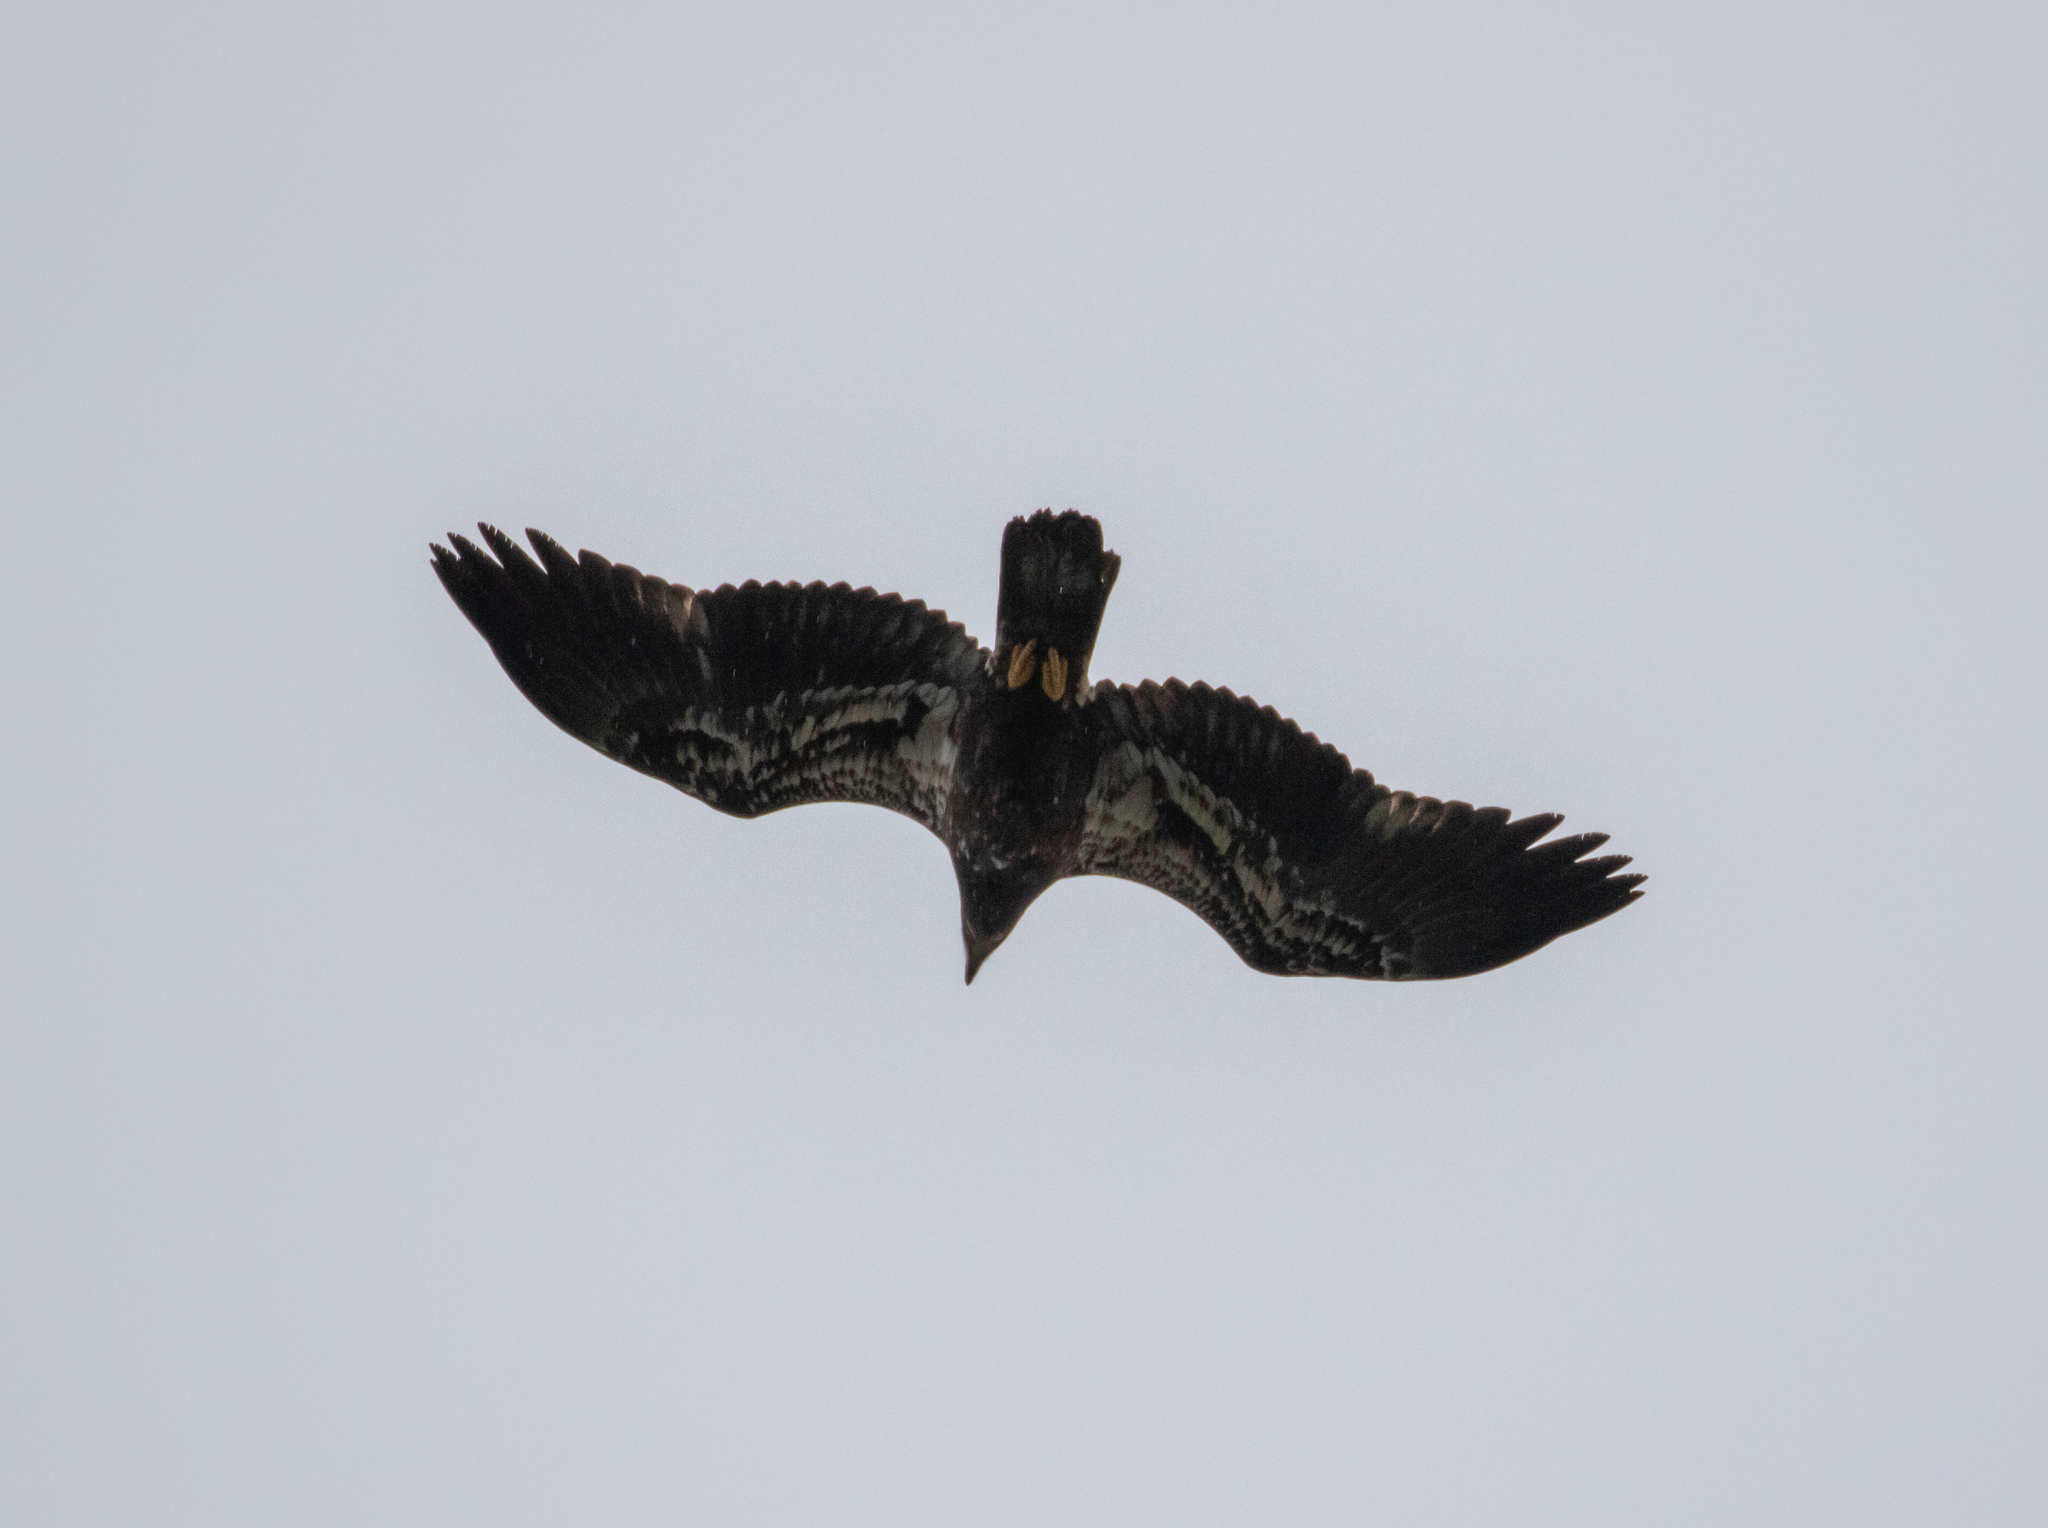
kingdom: Animalia
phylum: Chordata
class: Aves
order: Accipitriformes
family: Accipitridae
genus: Haliaeetus
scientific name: Haliaeetus leucocephalus
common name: Bald eagle
